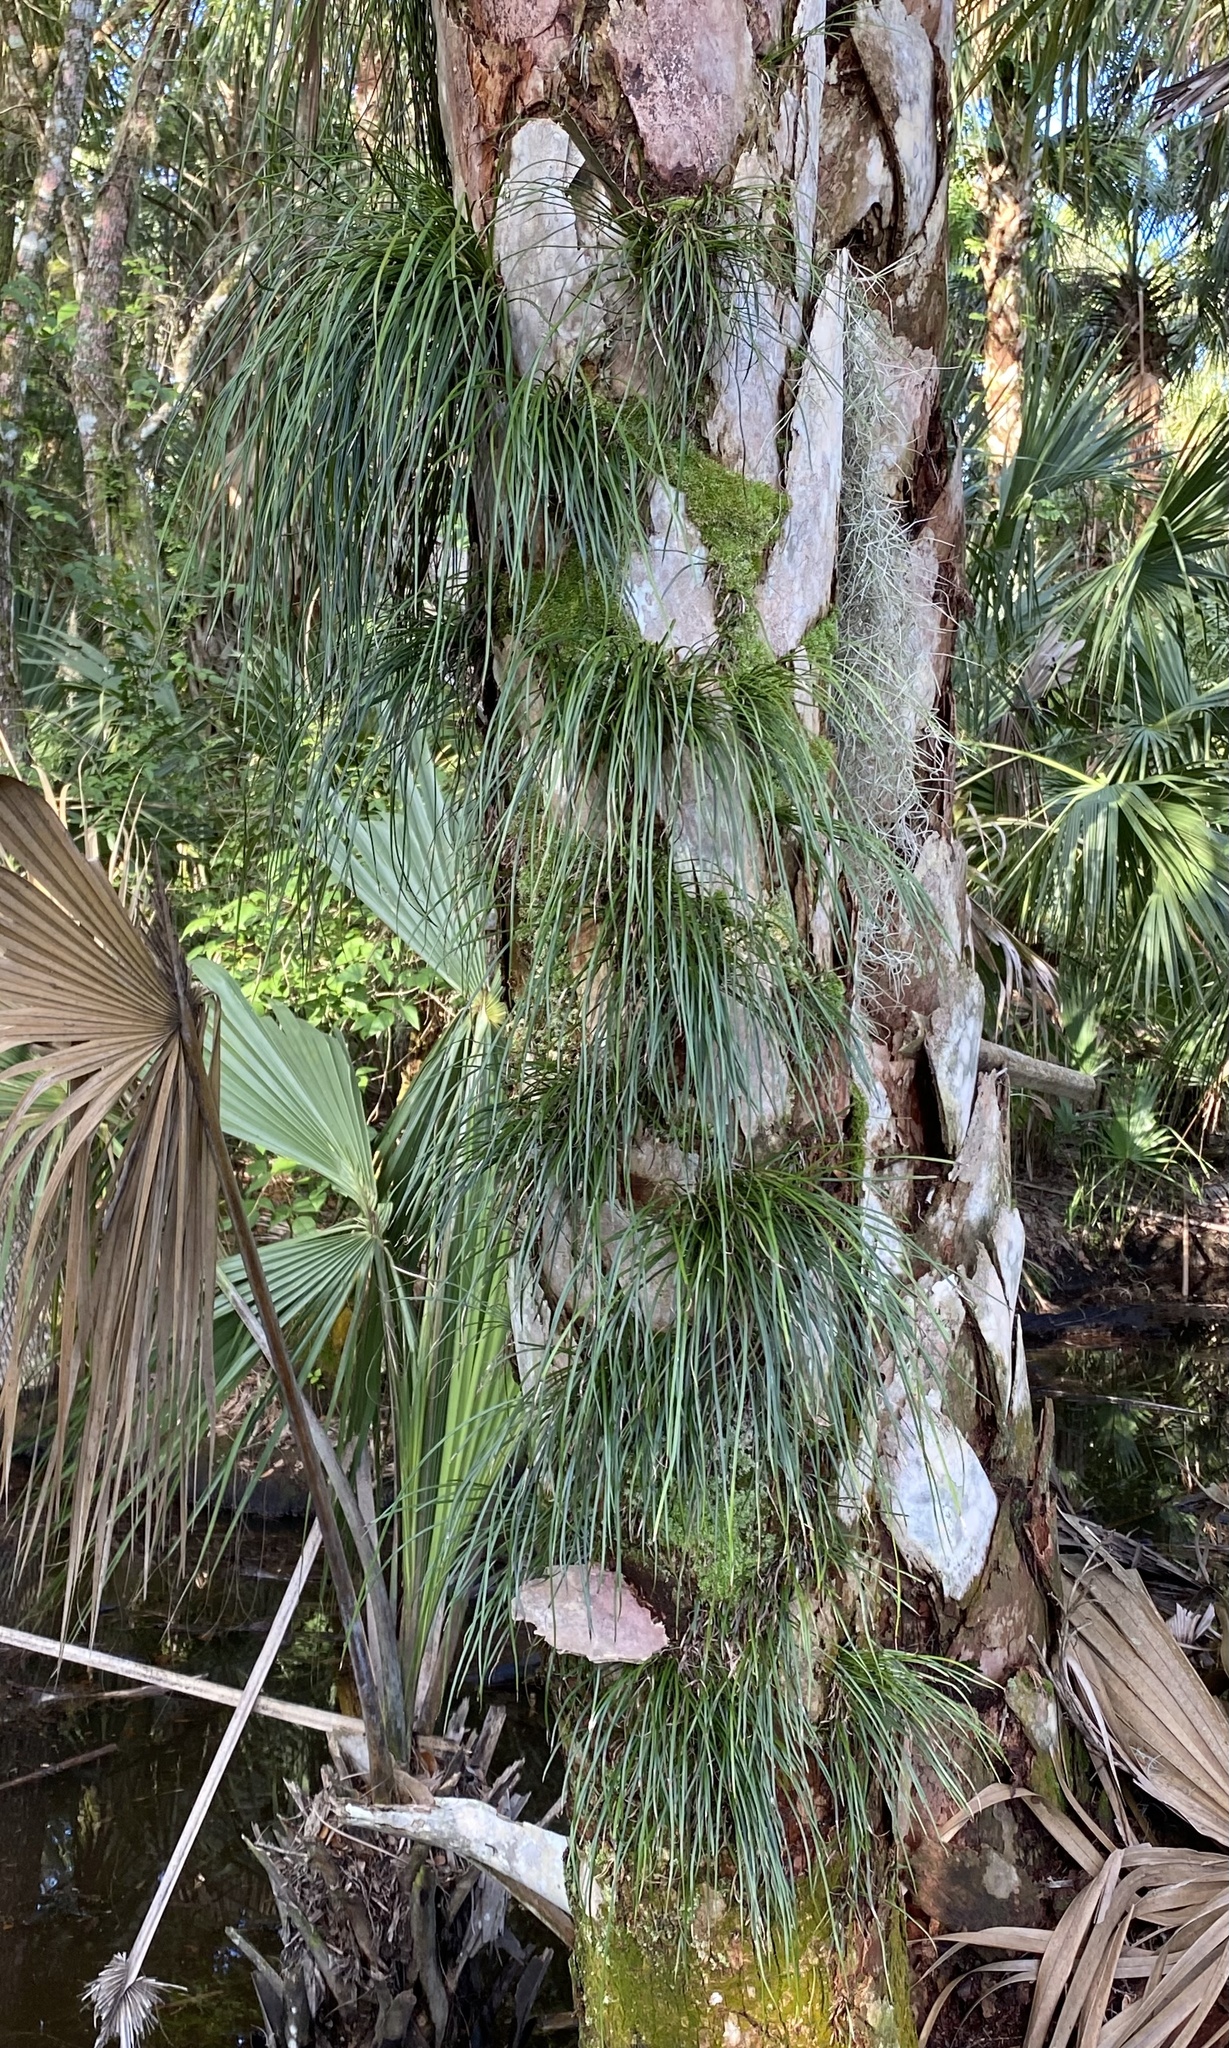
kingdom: Plantae
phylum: Tracheophyta
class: Polypodiopsida
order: Polypodiales
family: Pteridaceae
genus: Vittaria
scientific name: Vittaria lineata
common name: Shoestring fern
